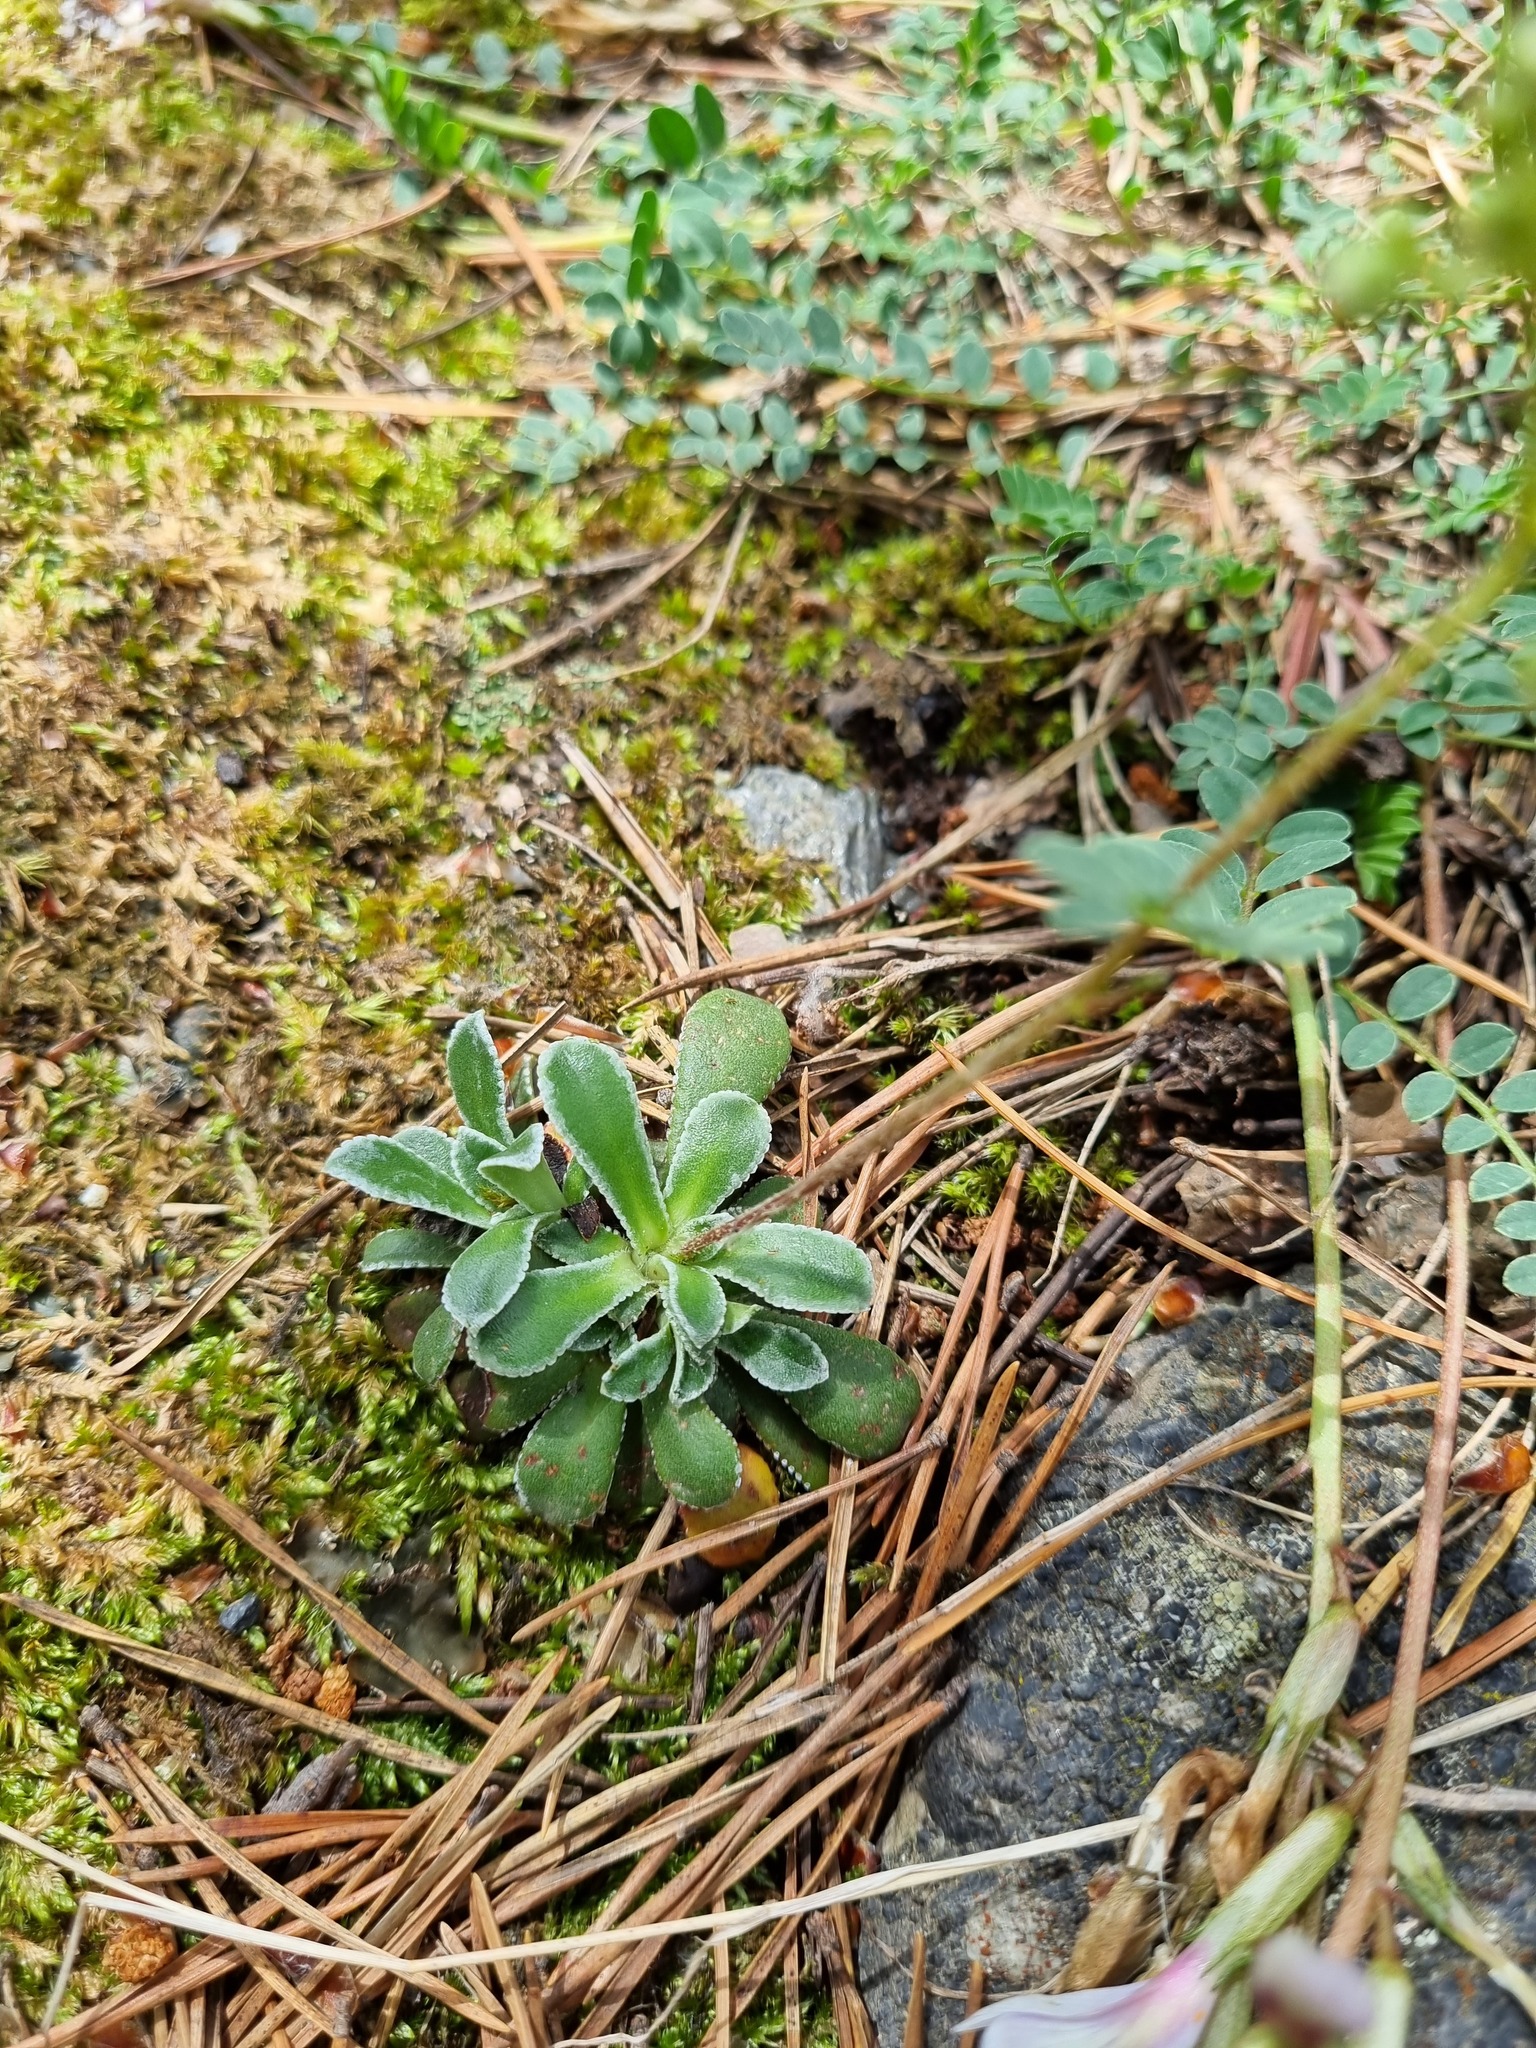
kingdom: Plantae
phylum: Tracheophyta
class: Magnoliopsida
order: Saxifragales
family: Saxifragaceae
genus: Saxifraga
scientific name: Saxifraga paniculata
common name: Livelong saxifrage
